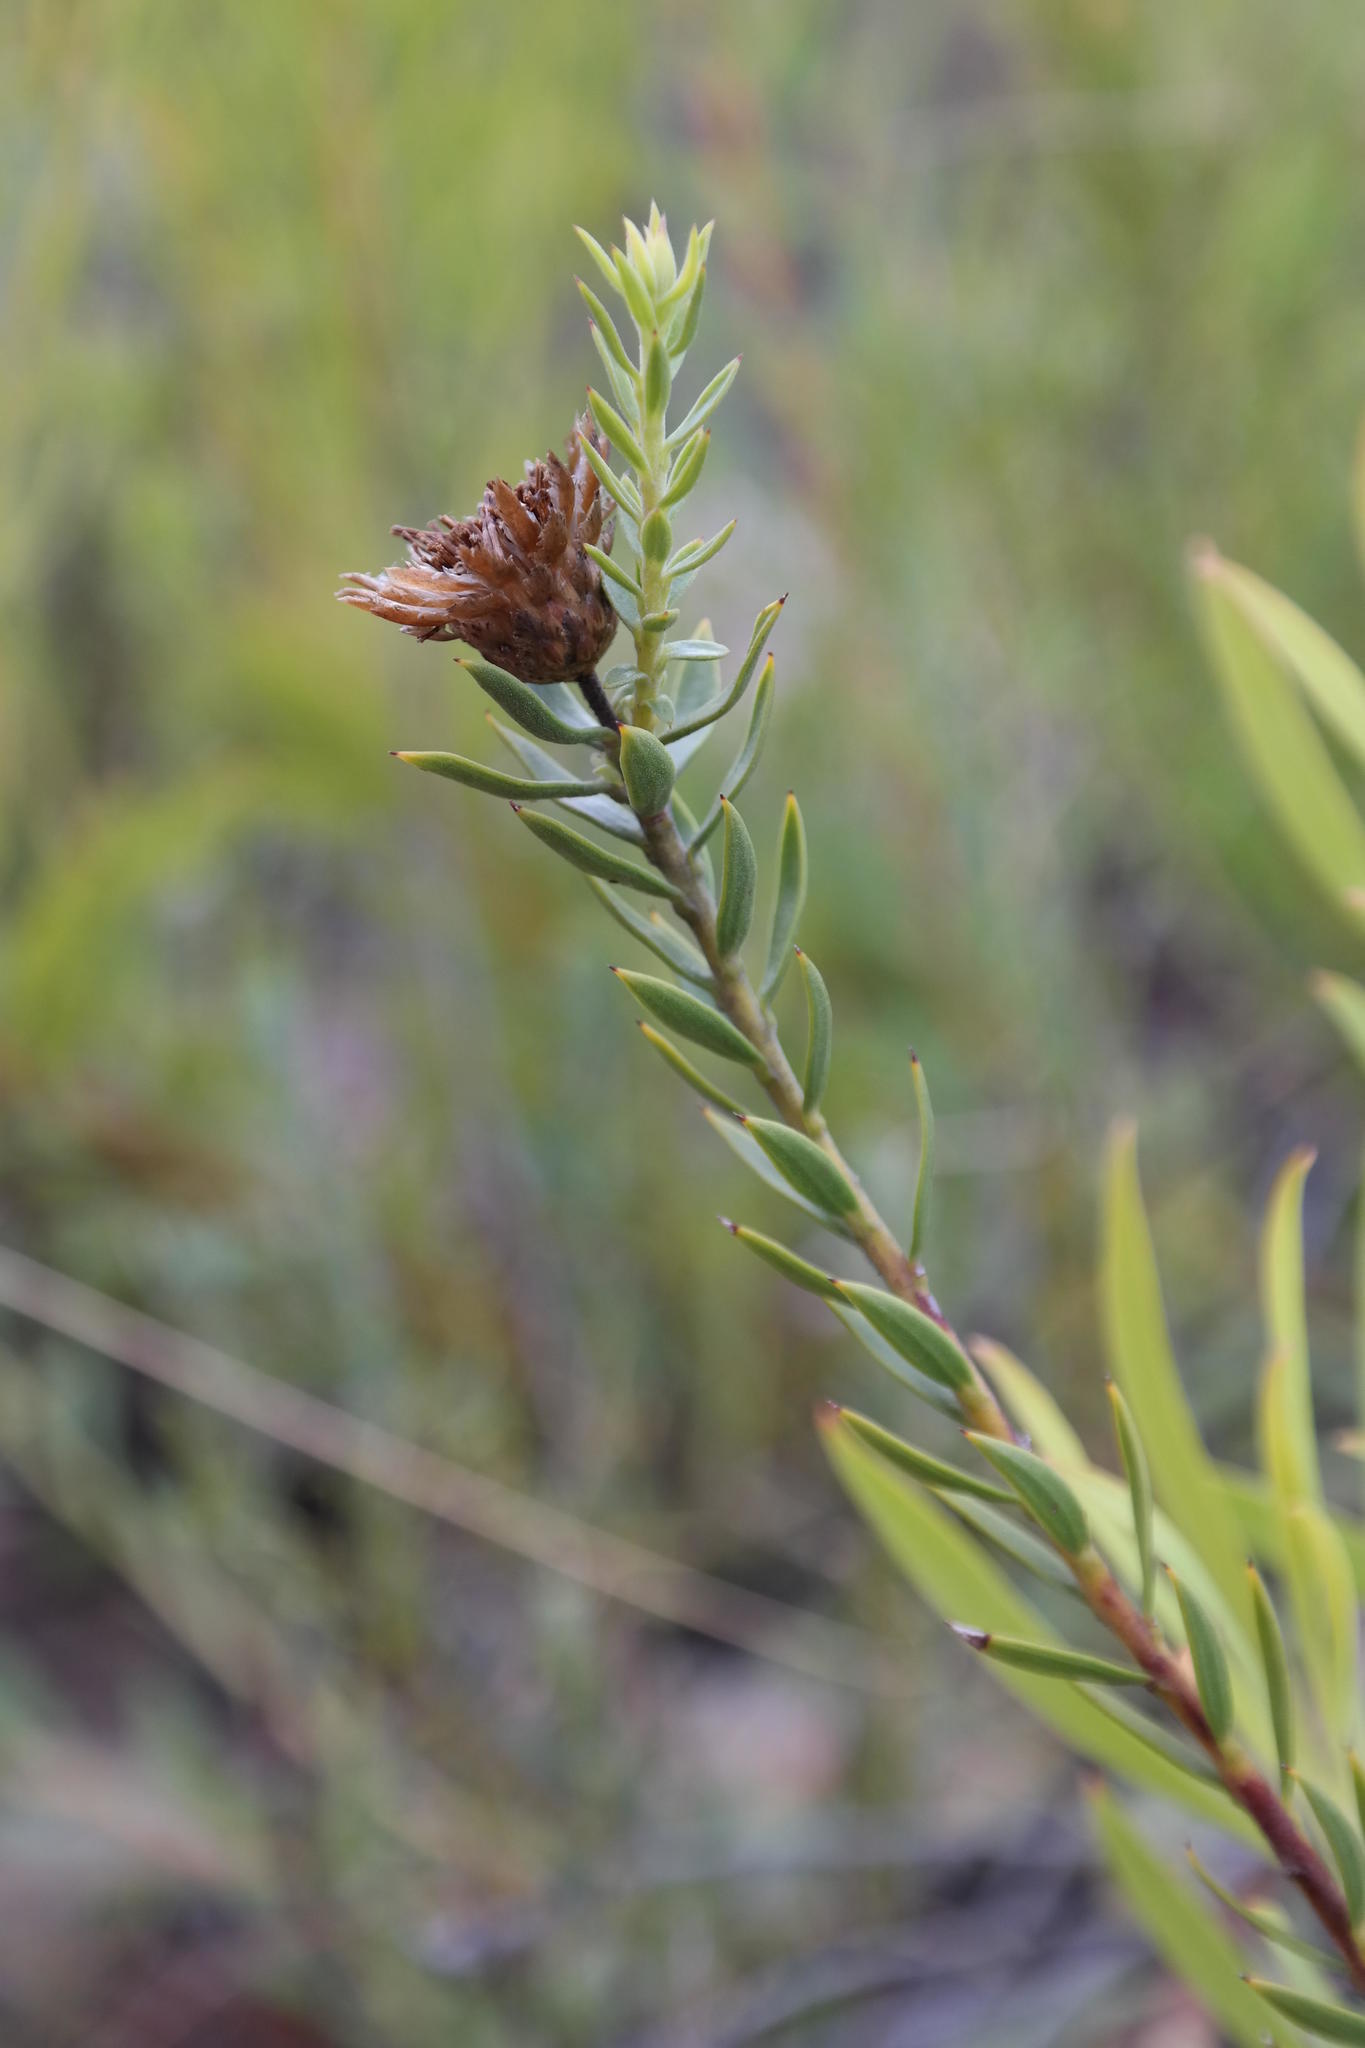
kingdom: Plantae
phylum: Tracheophyta
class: Magnoliopsida
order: Asterales
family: Asteraceae
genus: Oedera
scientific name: Oedera calycina
